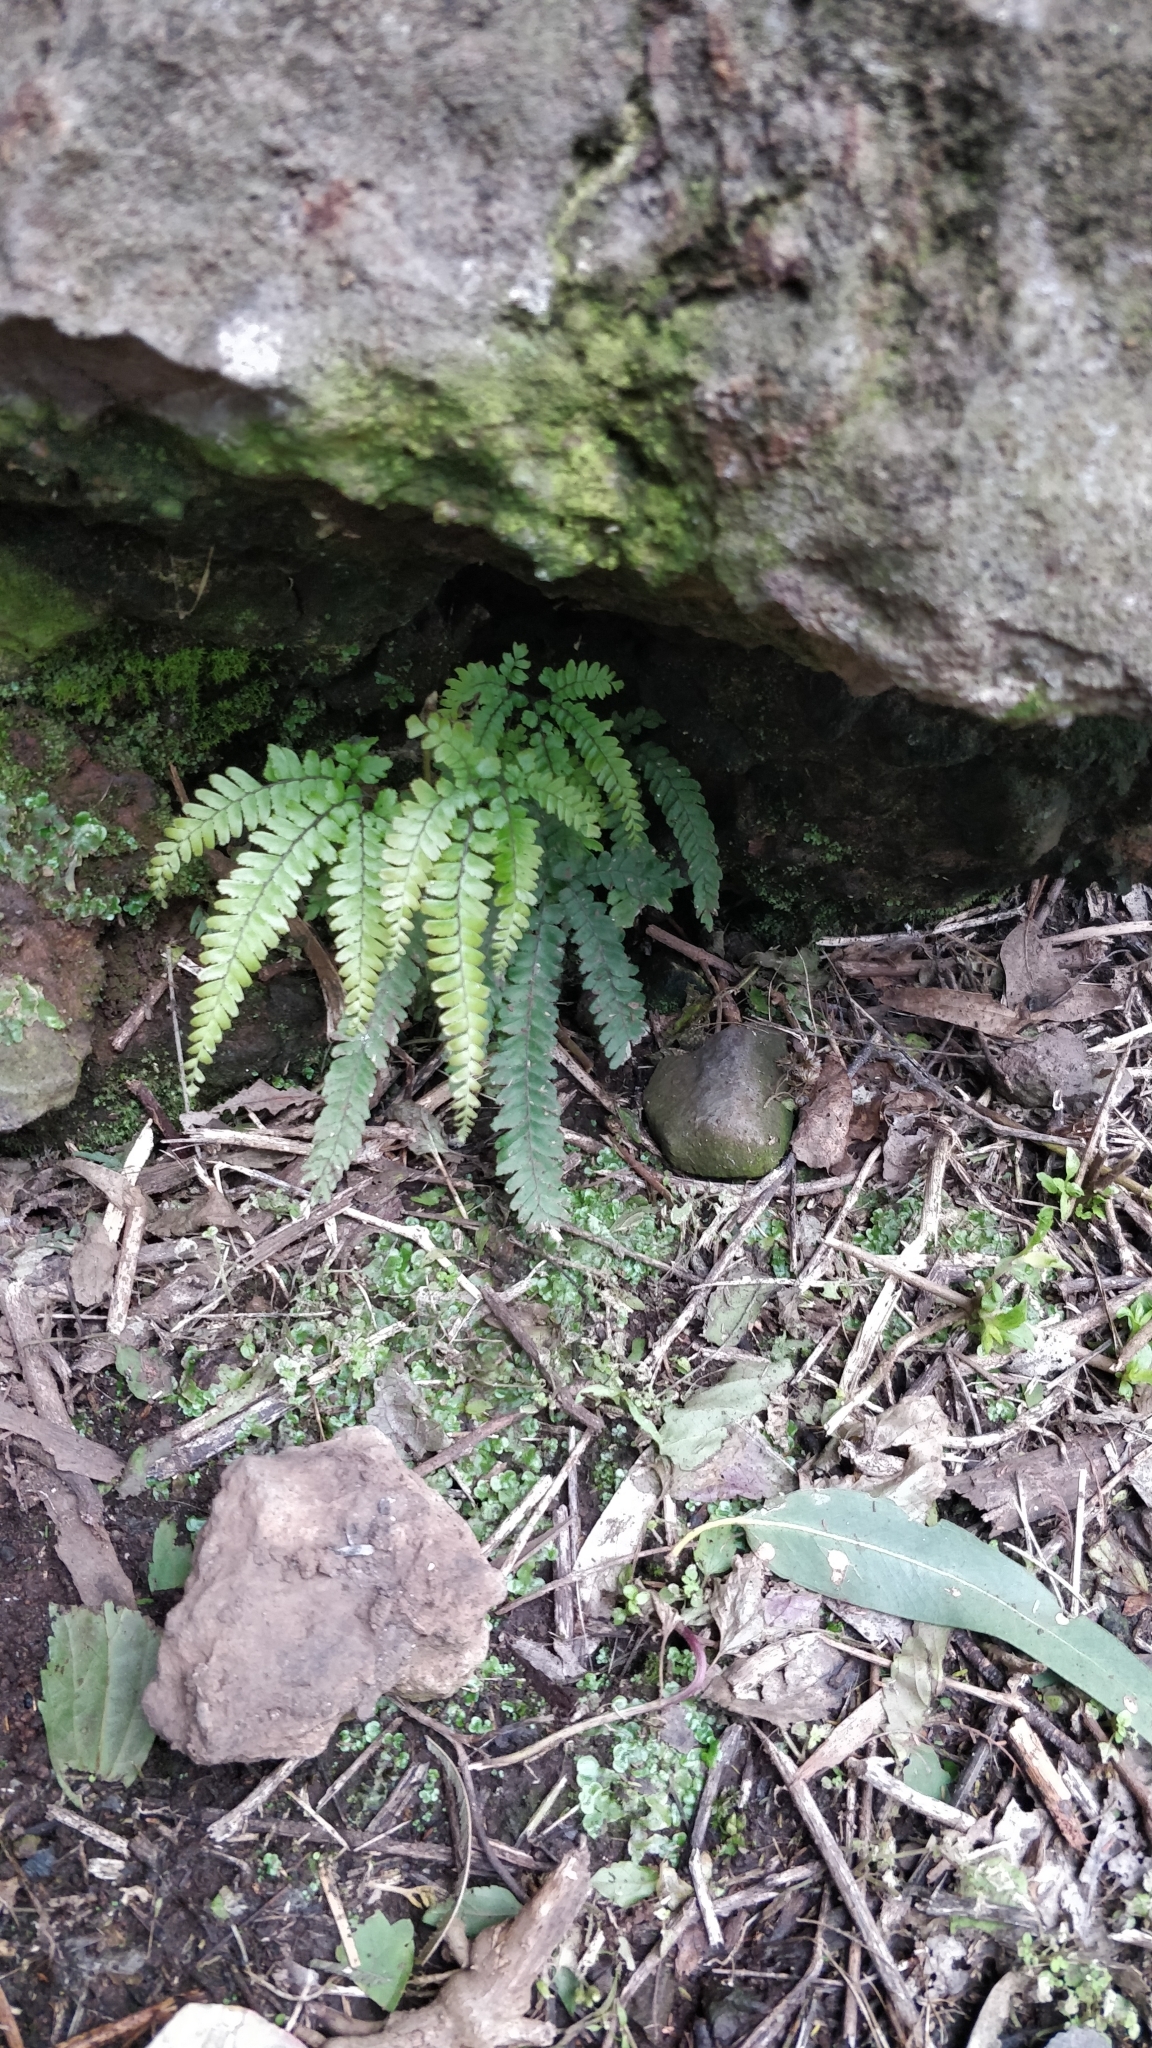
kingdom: Plantae
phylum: Tracheophyta
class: Polypodiopsida
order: Polypodiales
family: Pteridaceae
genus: Adiantum
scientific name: Adiantum hispidulum
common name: Rough maidenhair
